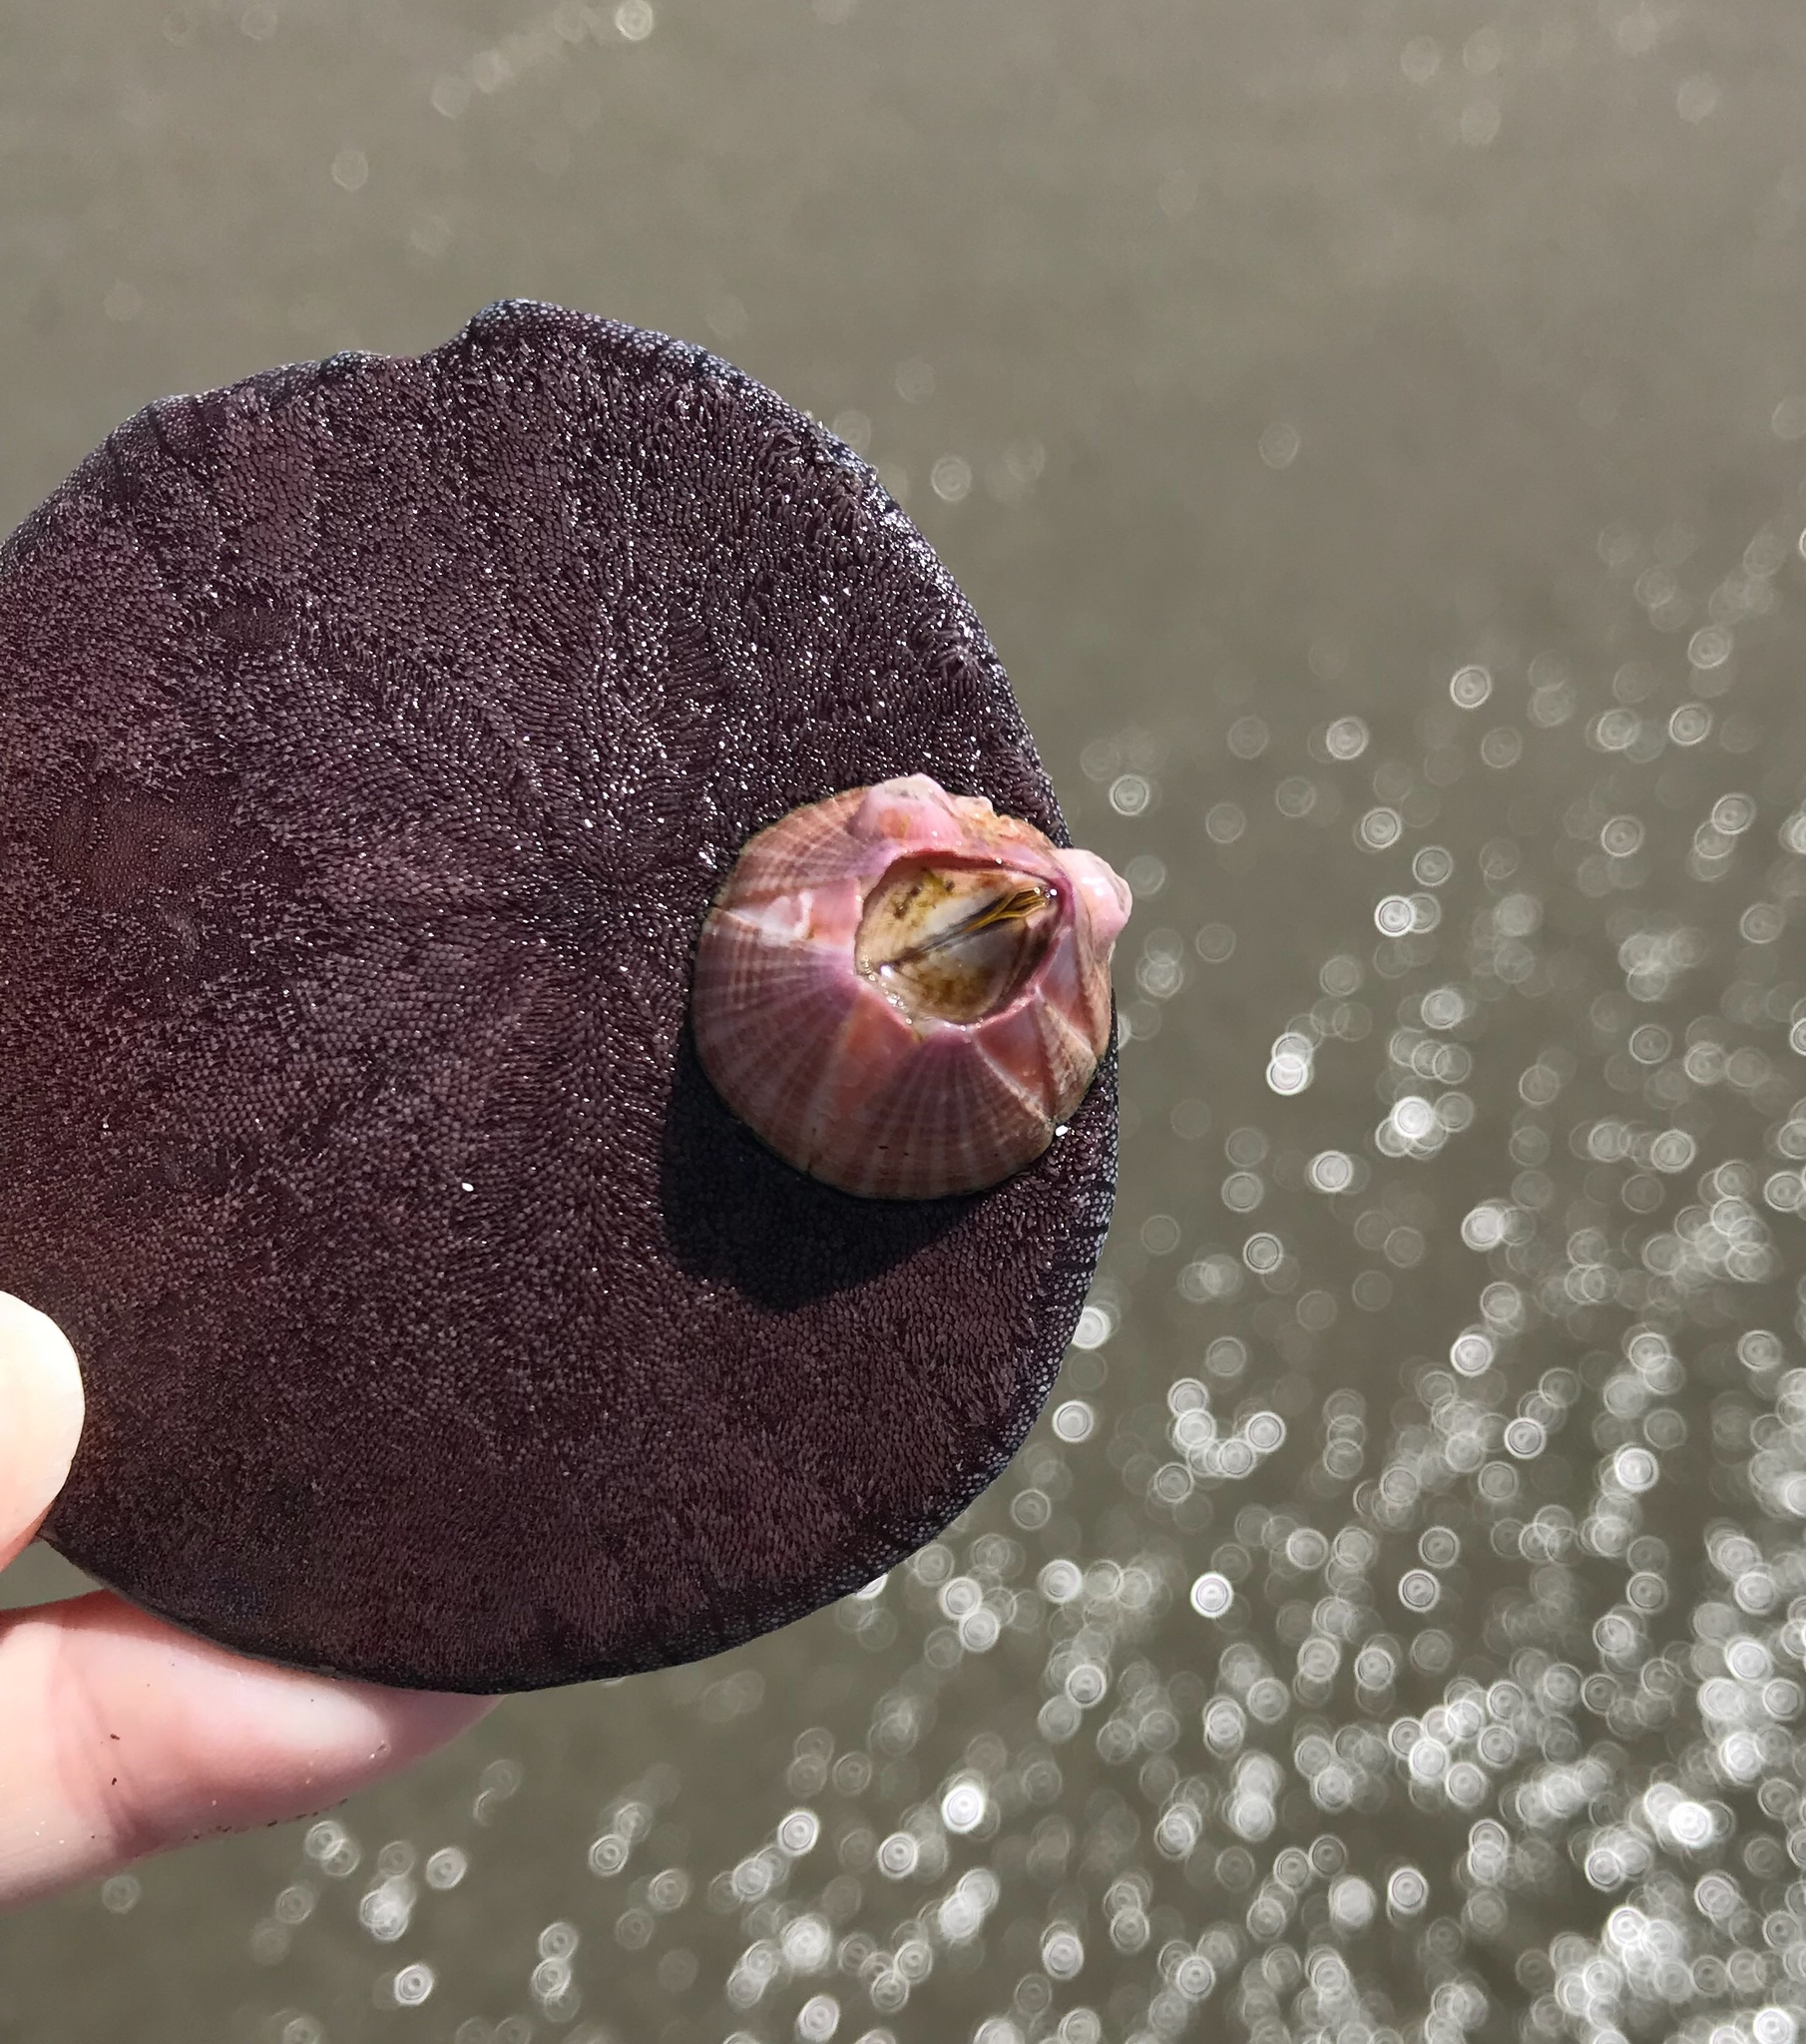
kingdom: Animalia
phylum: Arthropoda
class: Maxillopoda
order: Sessilia
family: Balanidae
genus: Paraconcavus
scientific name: Paraconcavus pacificus
